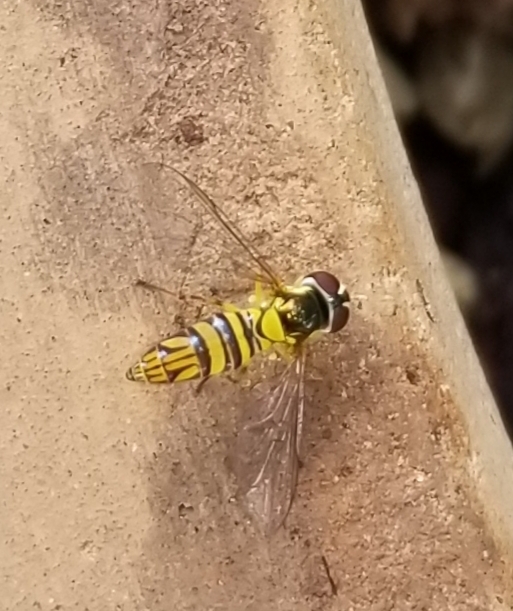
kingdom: Animalia
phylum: Arthropoda
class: Insecta
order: Diptera
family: Syrphidae
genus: Allograpta
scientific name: Allograpta obliqua
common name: Common oblique syrphid
